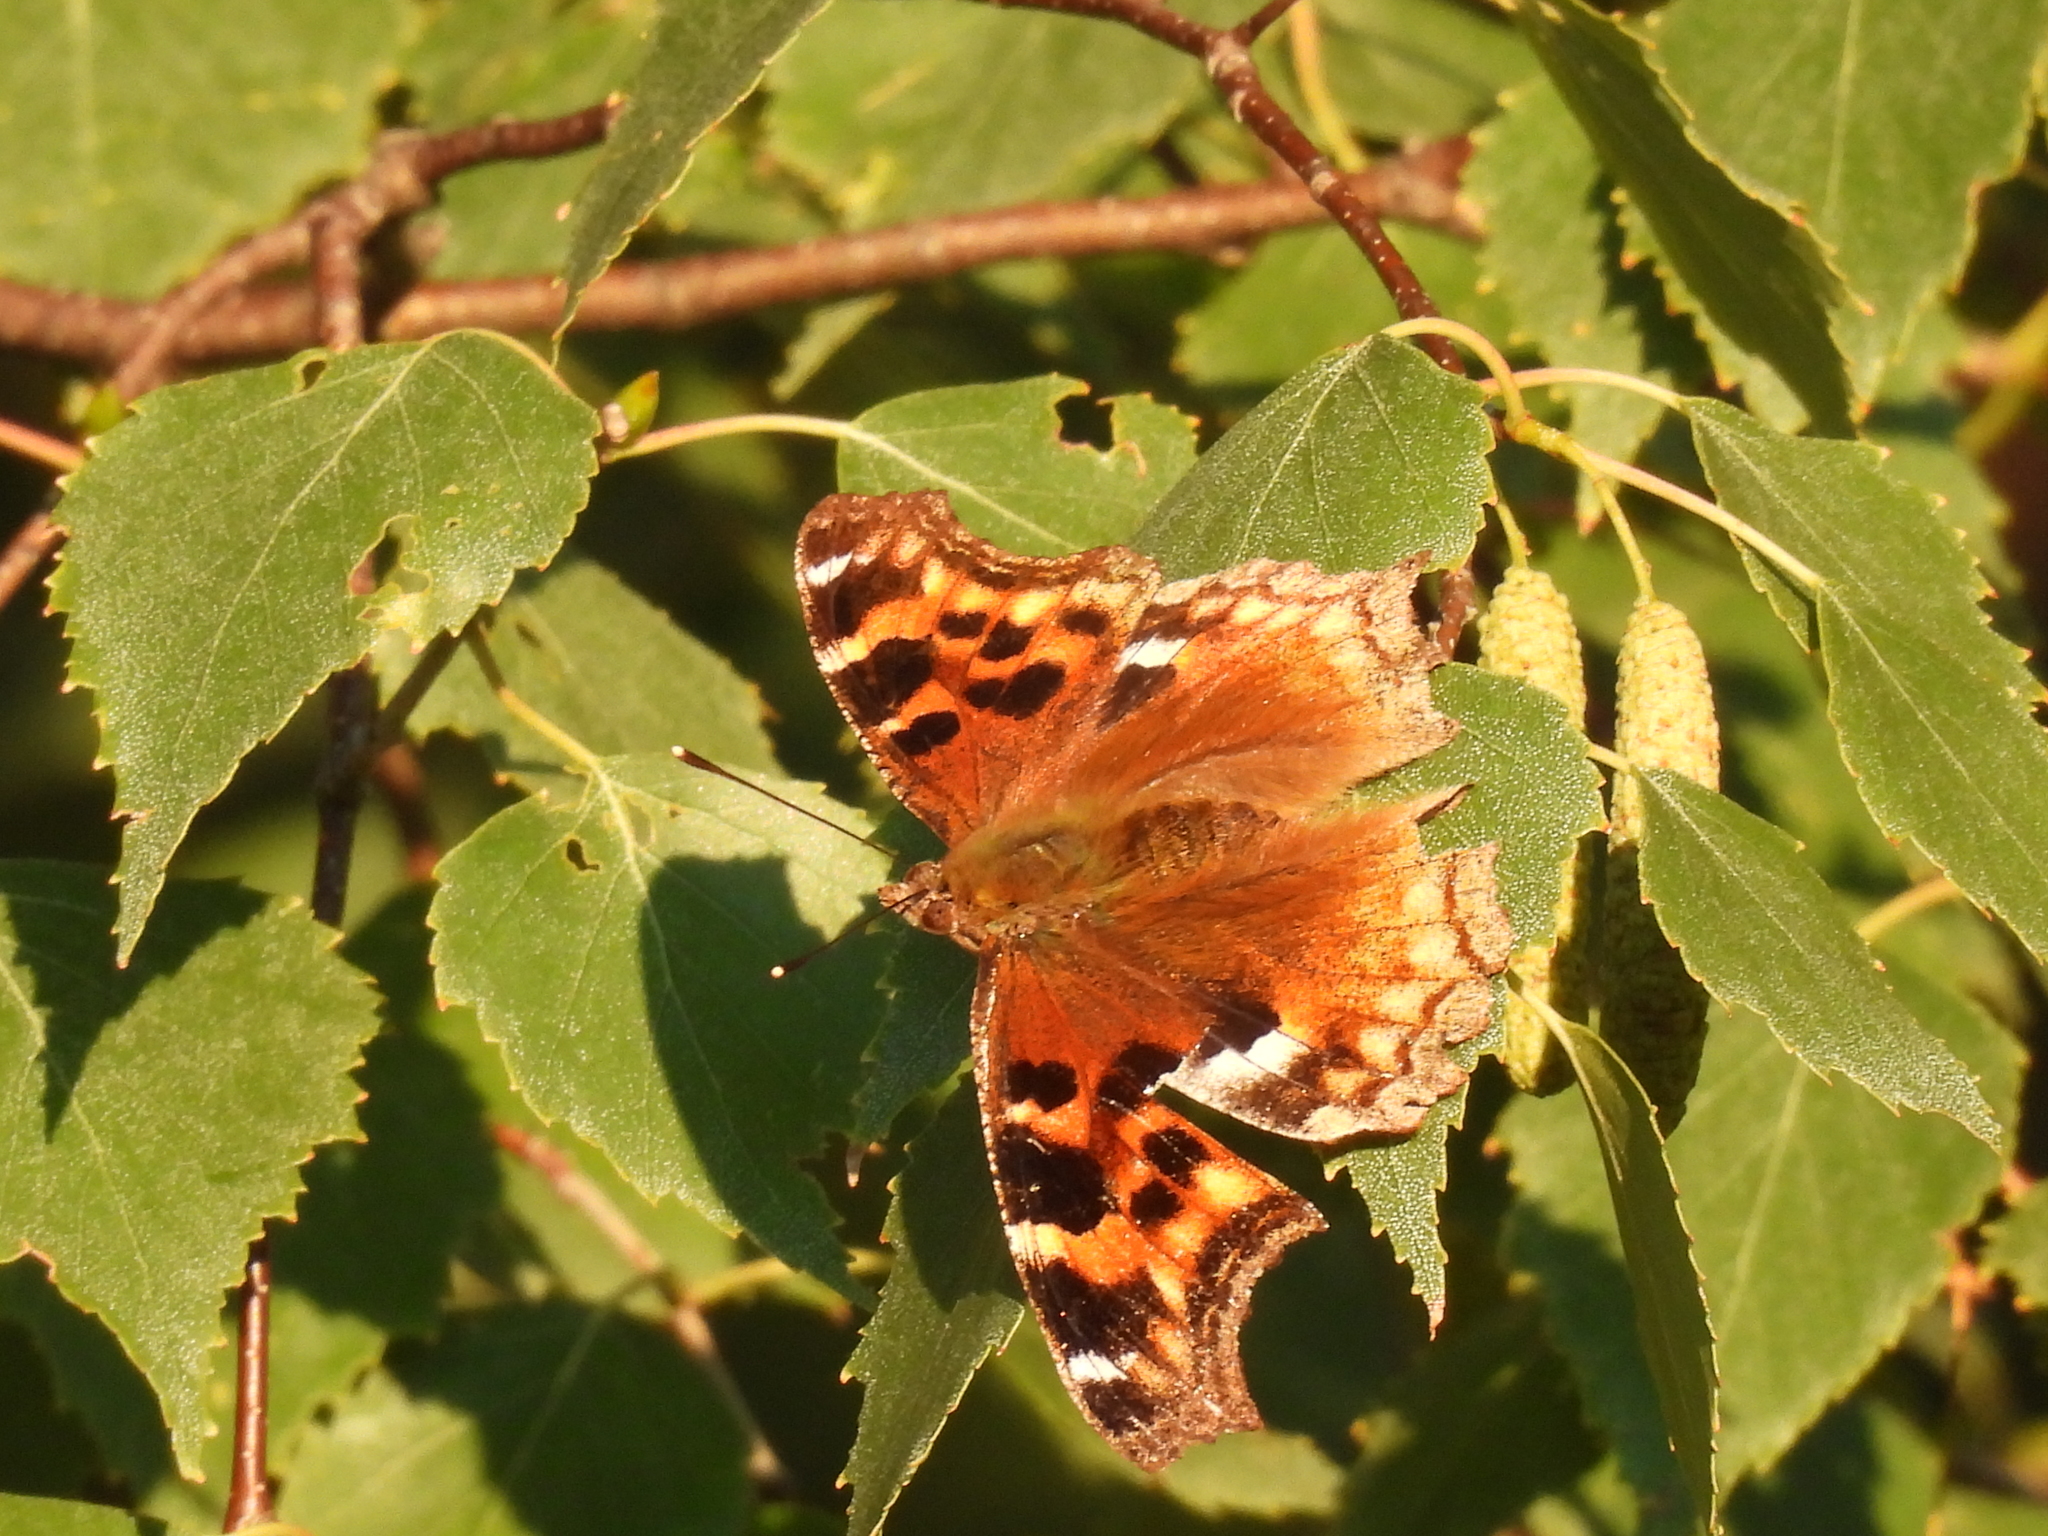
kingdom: Animalia
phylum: Arthropoda
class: Insecta
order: Lepidoptera
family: Nymphalidae
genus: Polygonia
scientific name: Polygonia vaualbum
